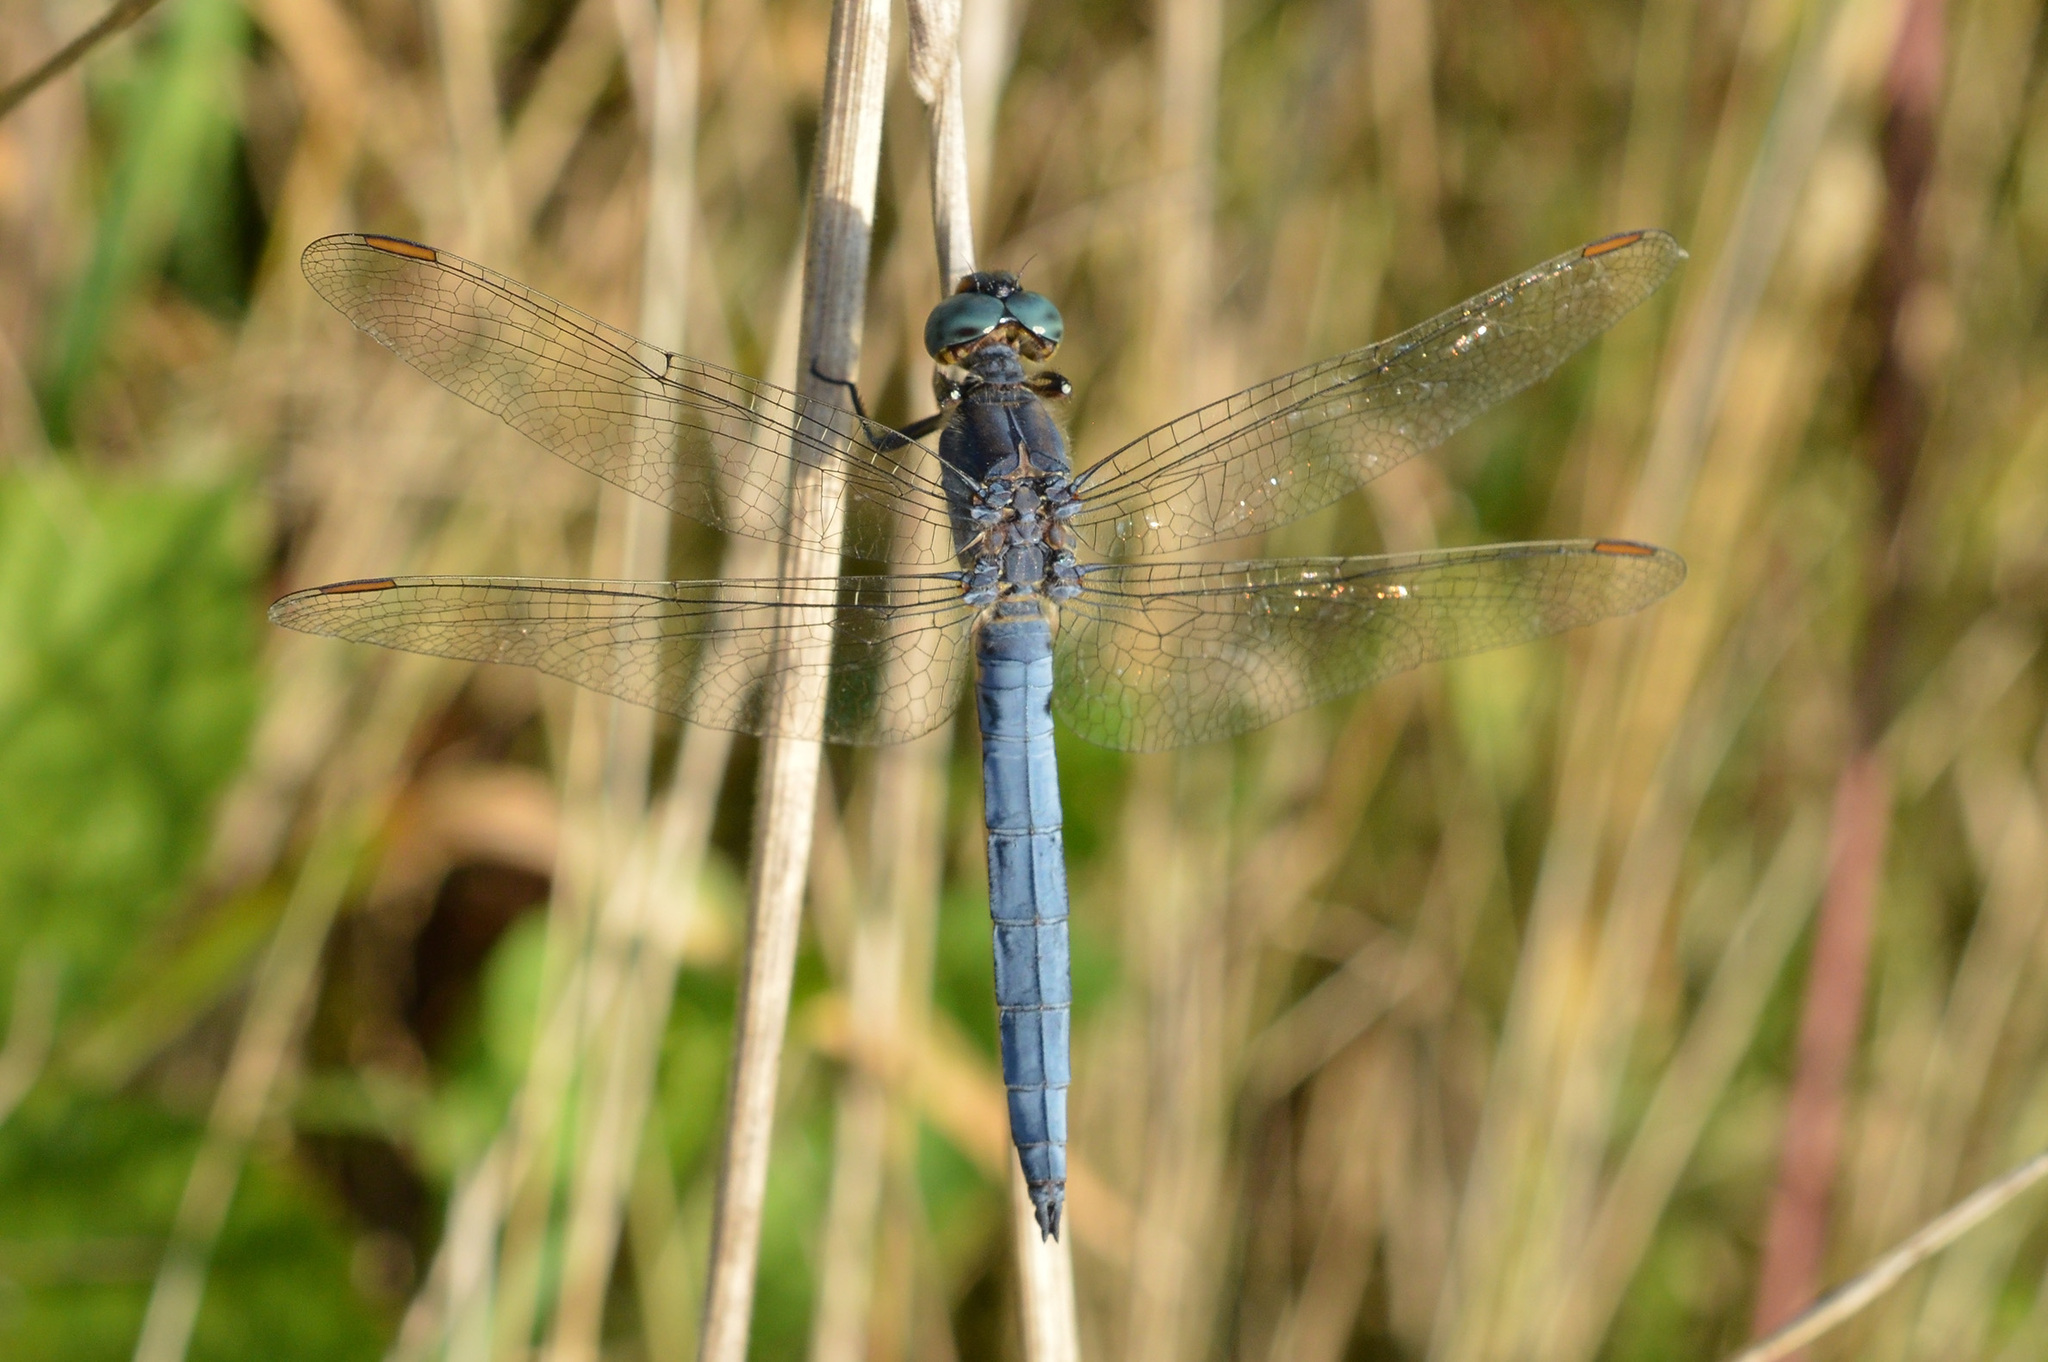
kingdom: Animalia
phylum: Arthropoda
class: Insecta
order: Odonata
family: Libellulidae
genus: Orthetrum
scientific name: Orthetrum coerulescens
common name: Keeled skimmer
